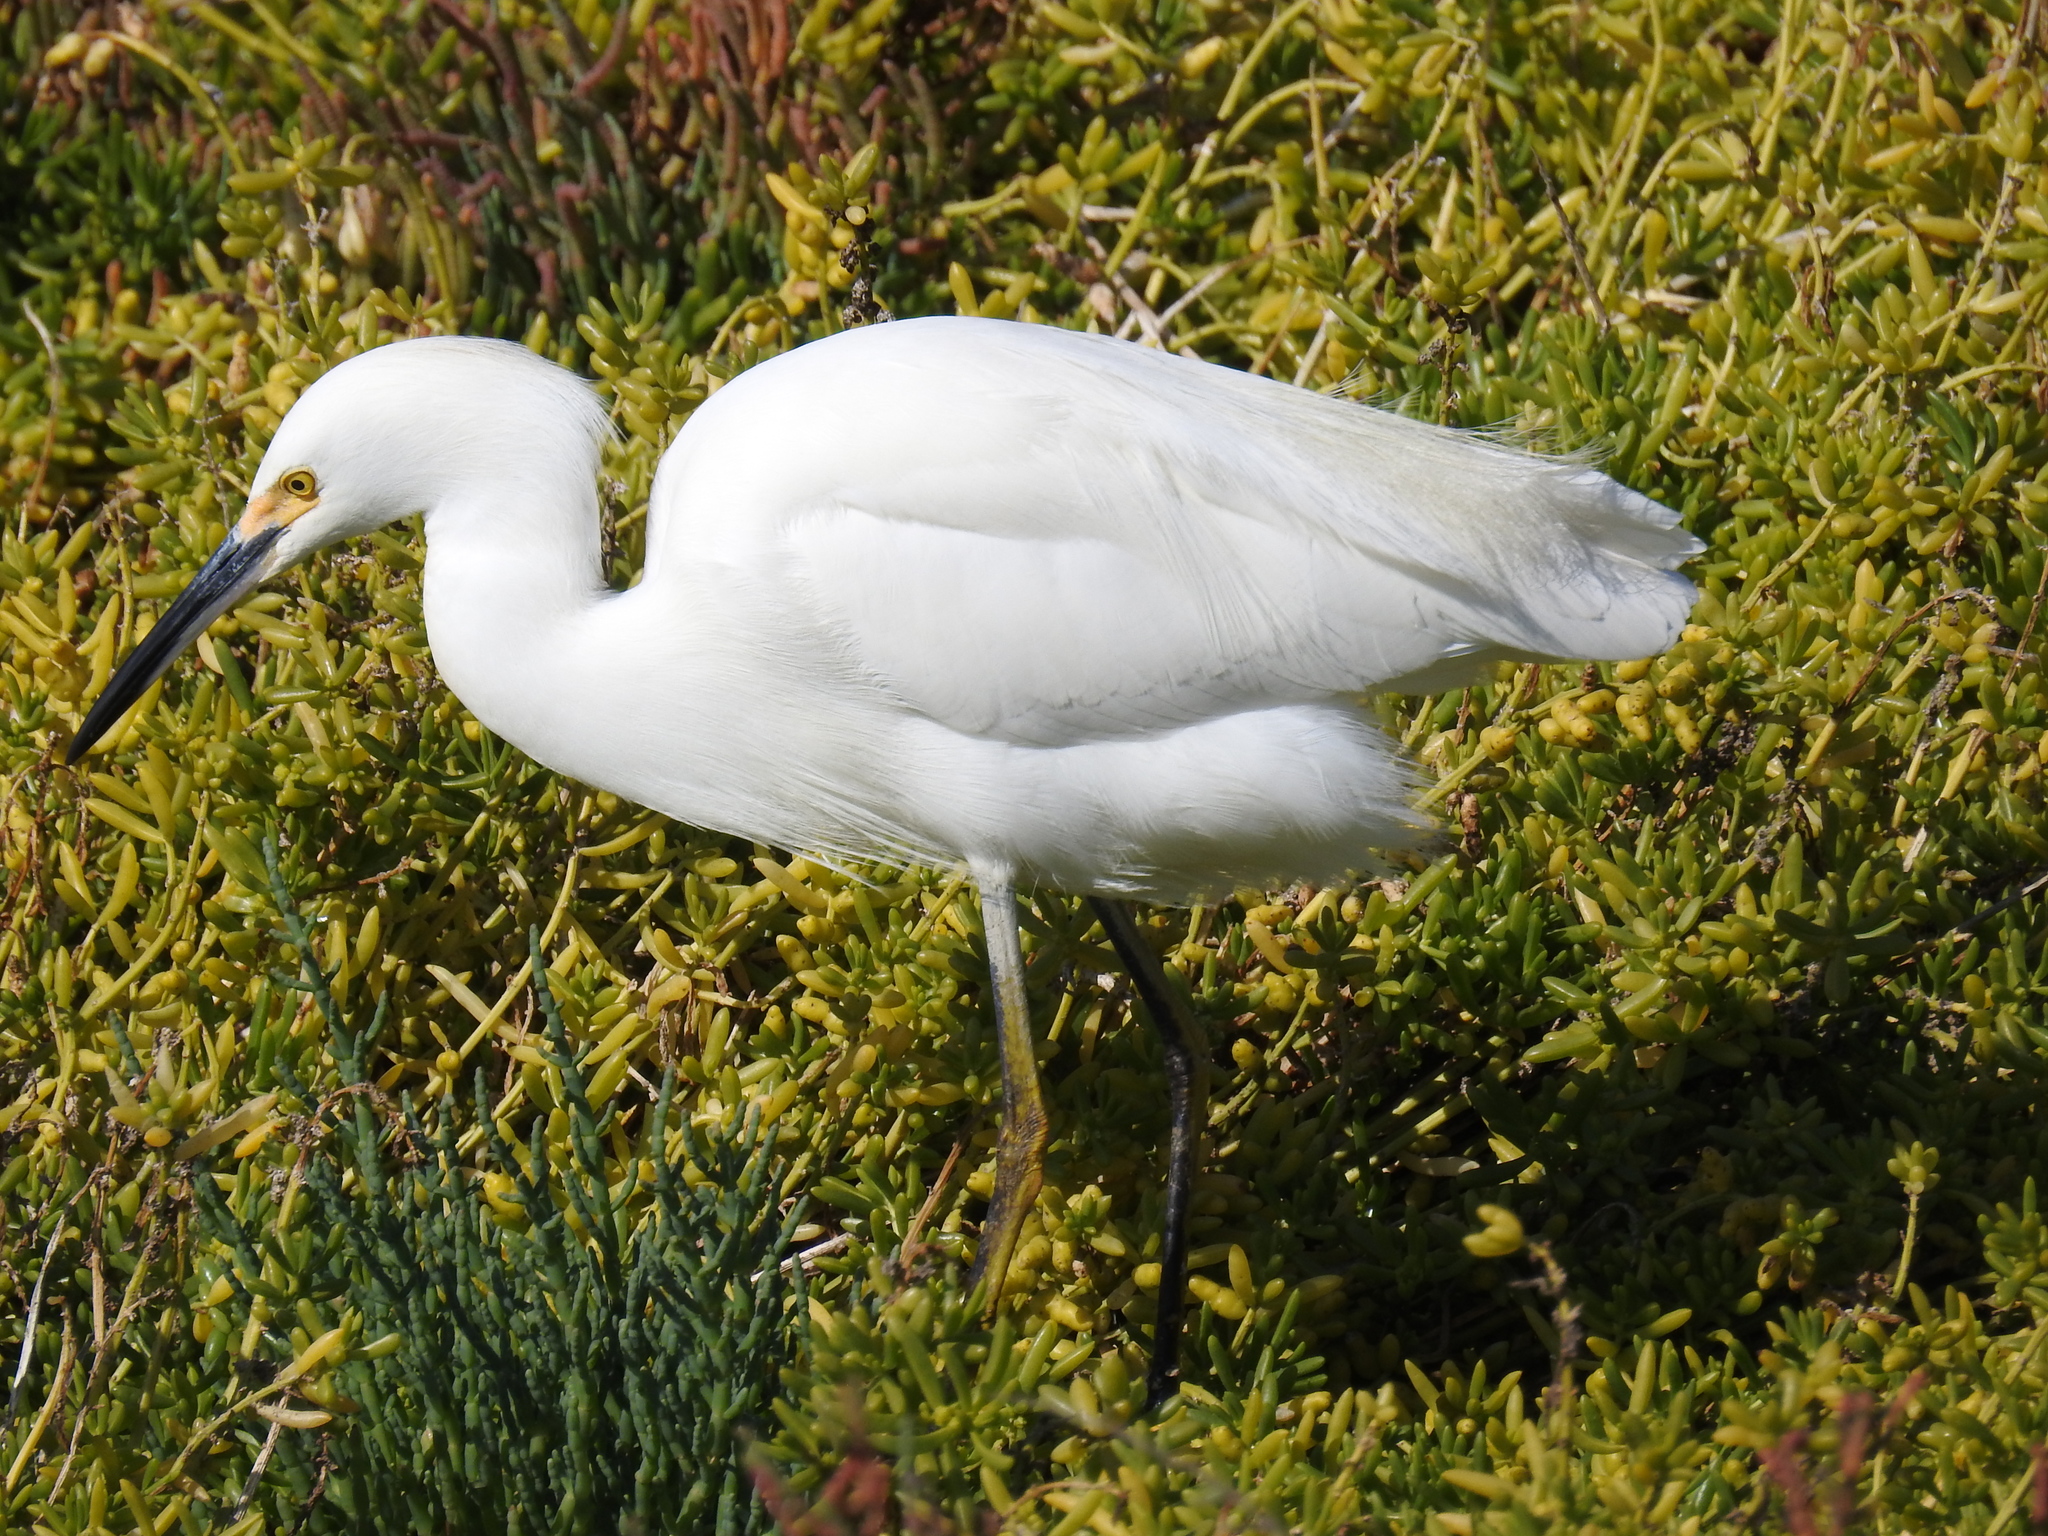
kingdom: Animalia
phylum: Chordata
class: Aves
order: Pelecaniformes
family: Ardeidae
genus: Egretta
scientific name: Egretta thula
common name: Snowy egret
